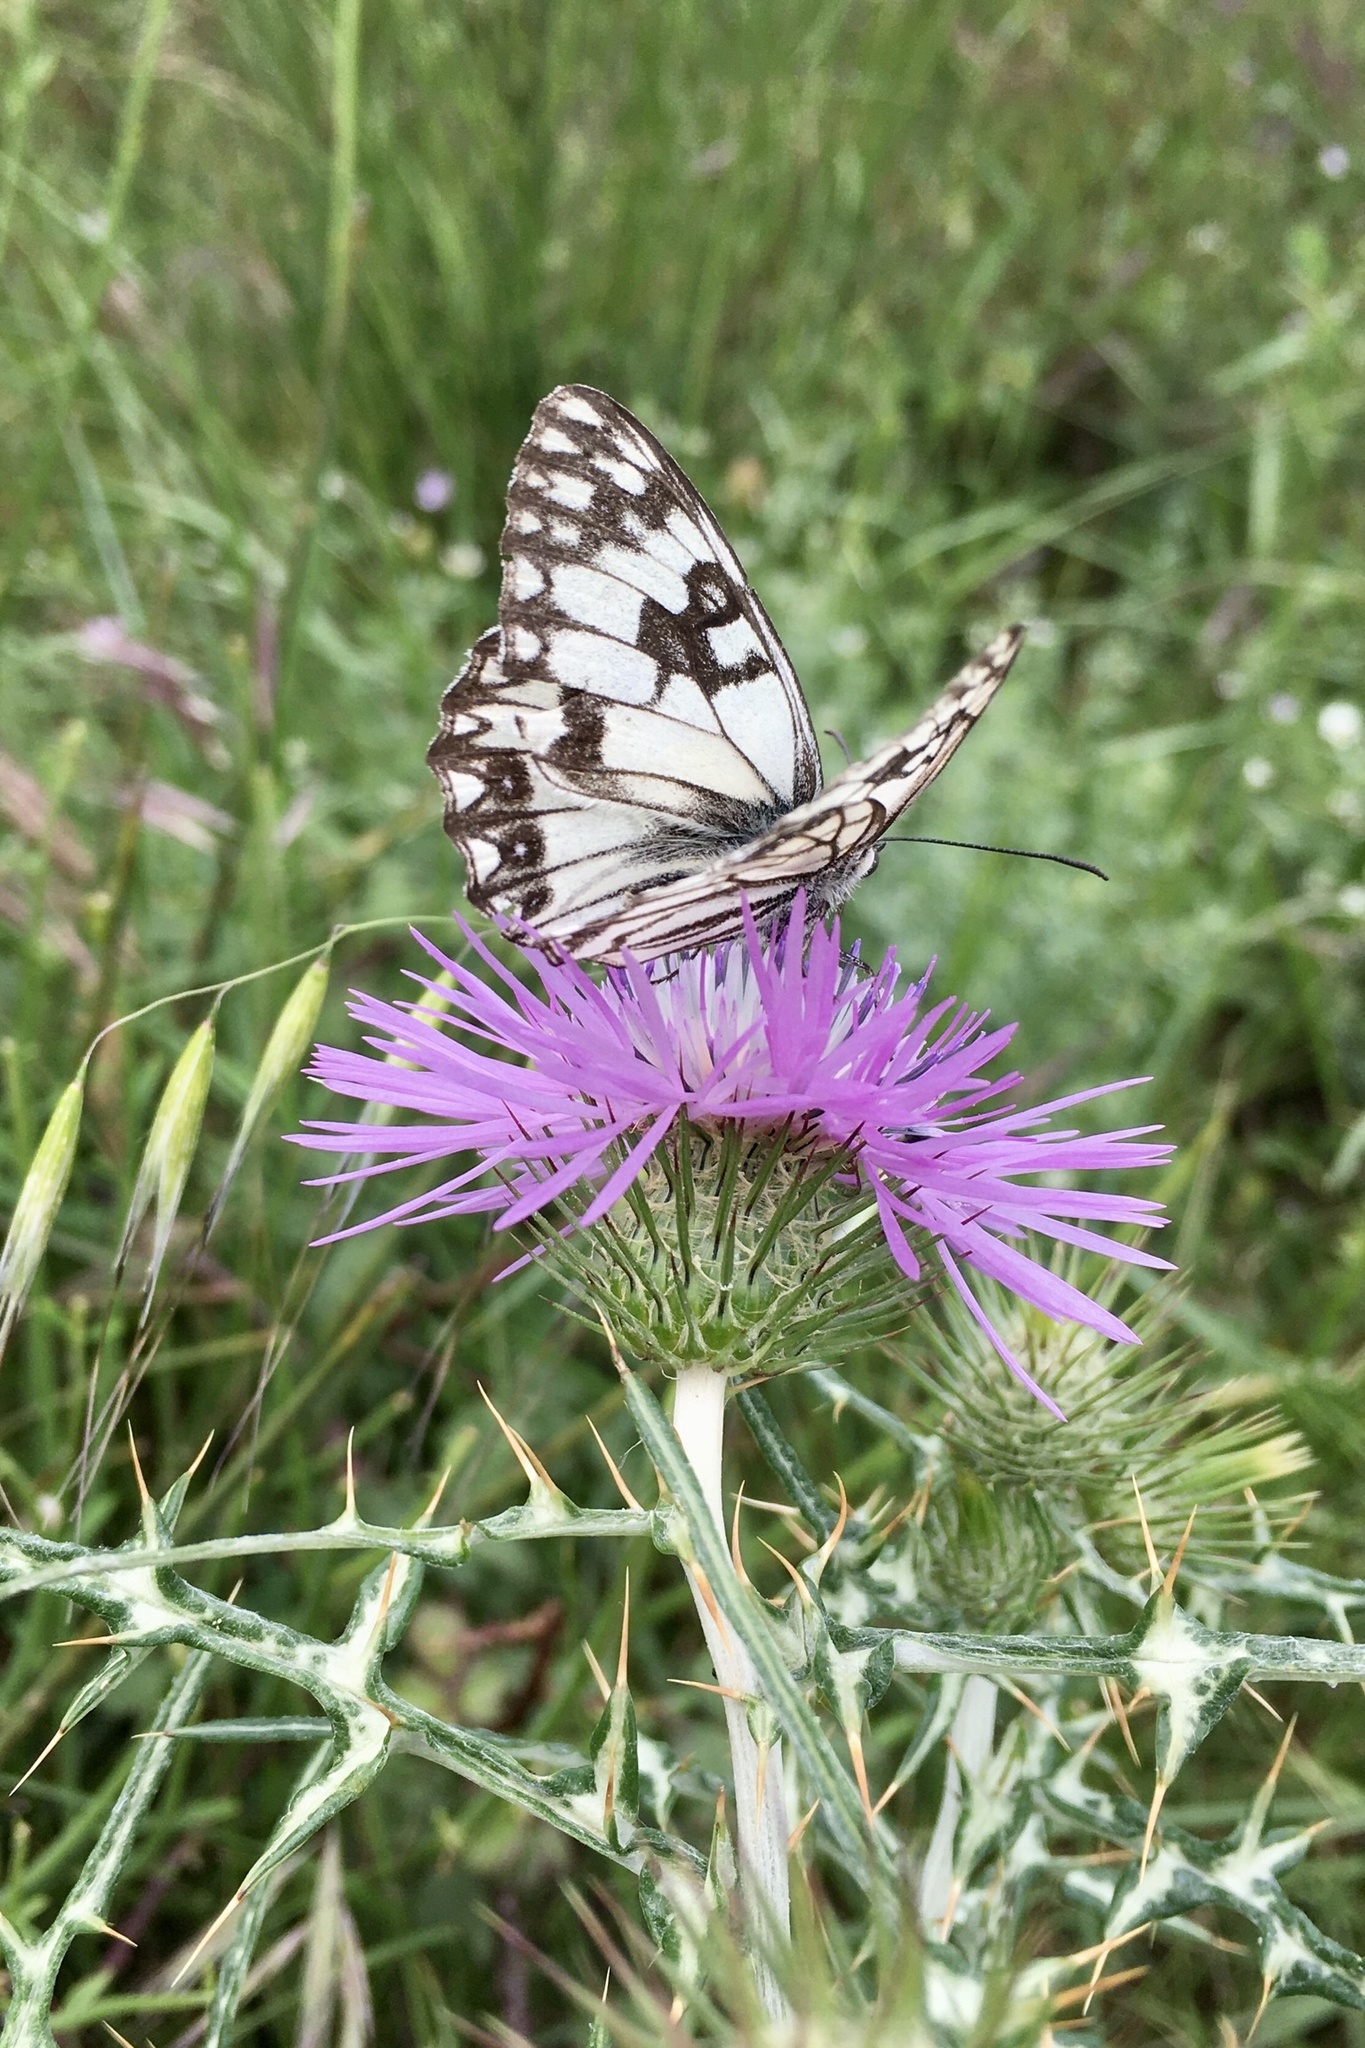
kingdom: Animalia
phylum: Arthropoda
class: Insecta
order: Lepidoptera
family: Nymphalidae
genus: Melanargia
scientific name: Melanargia occitanica
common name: Western marbled white
